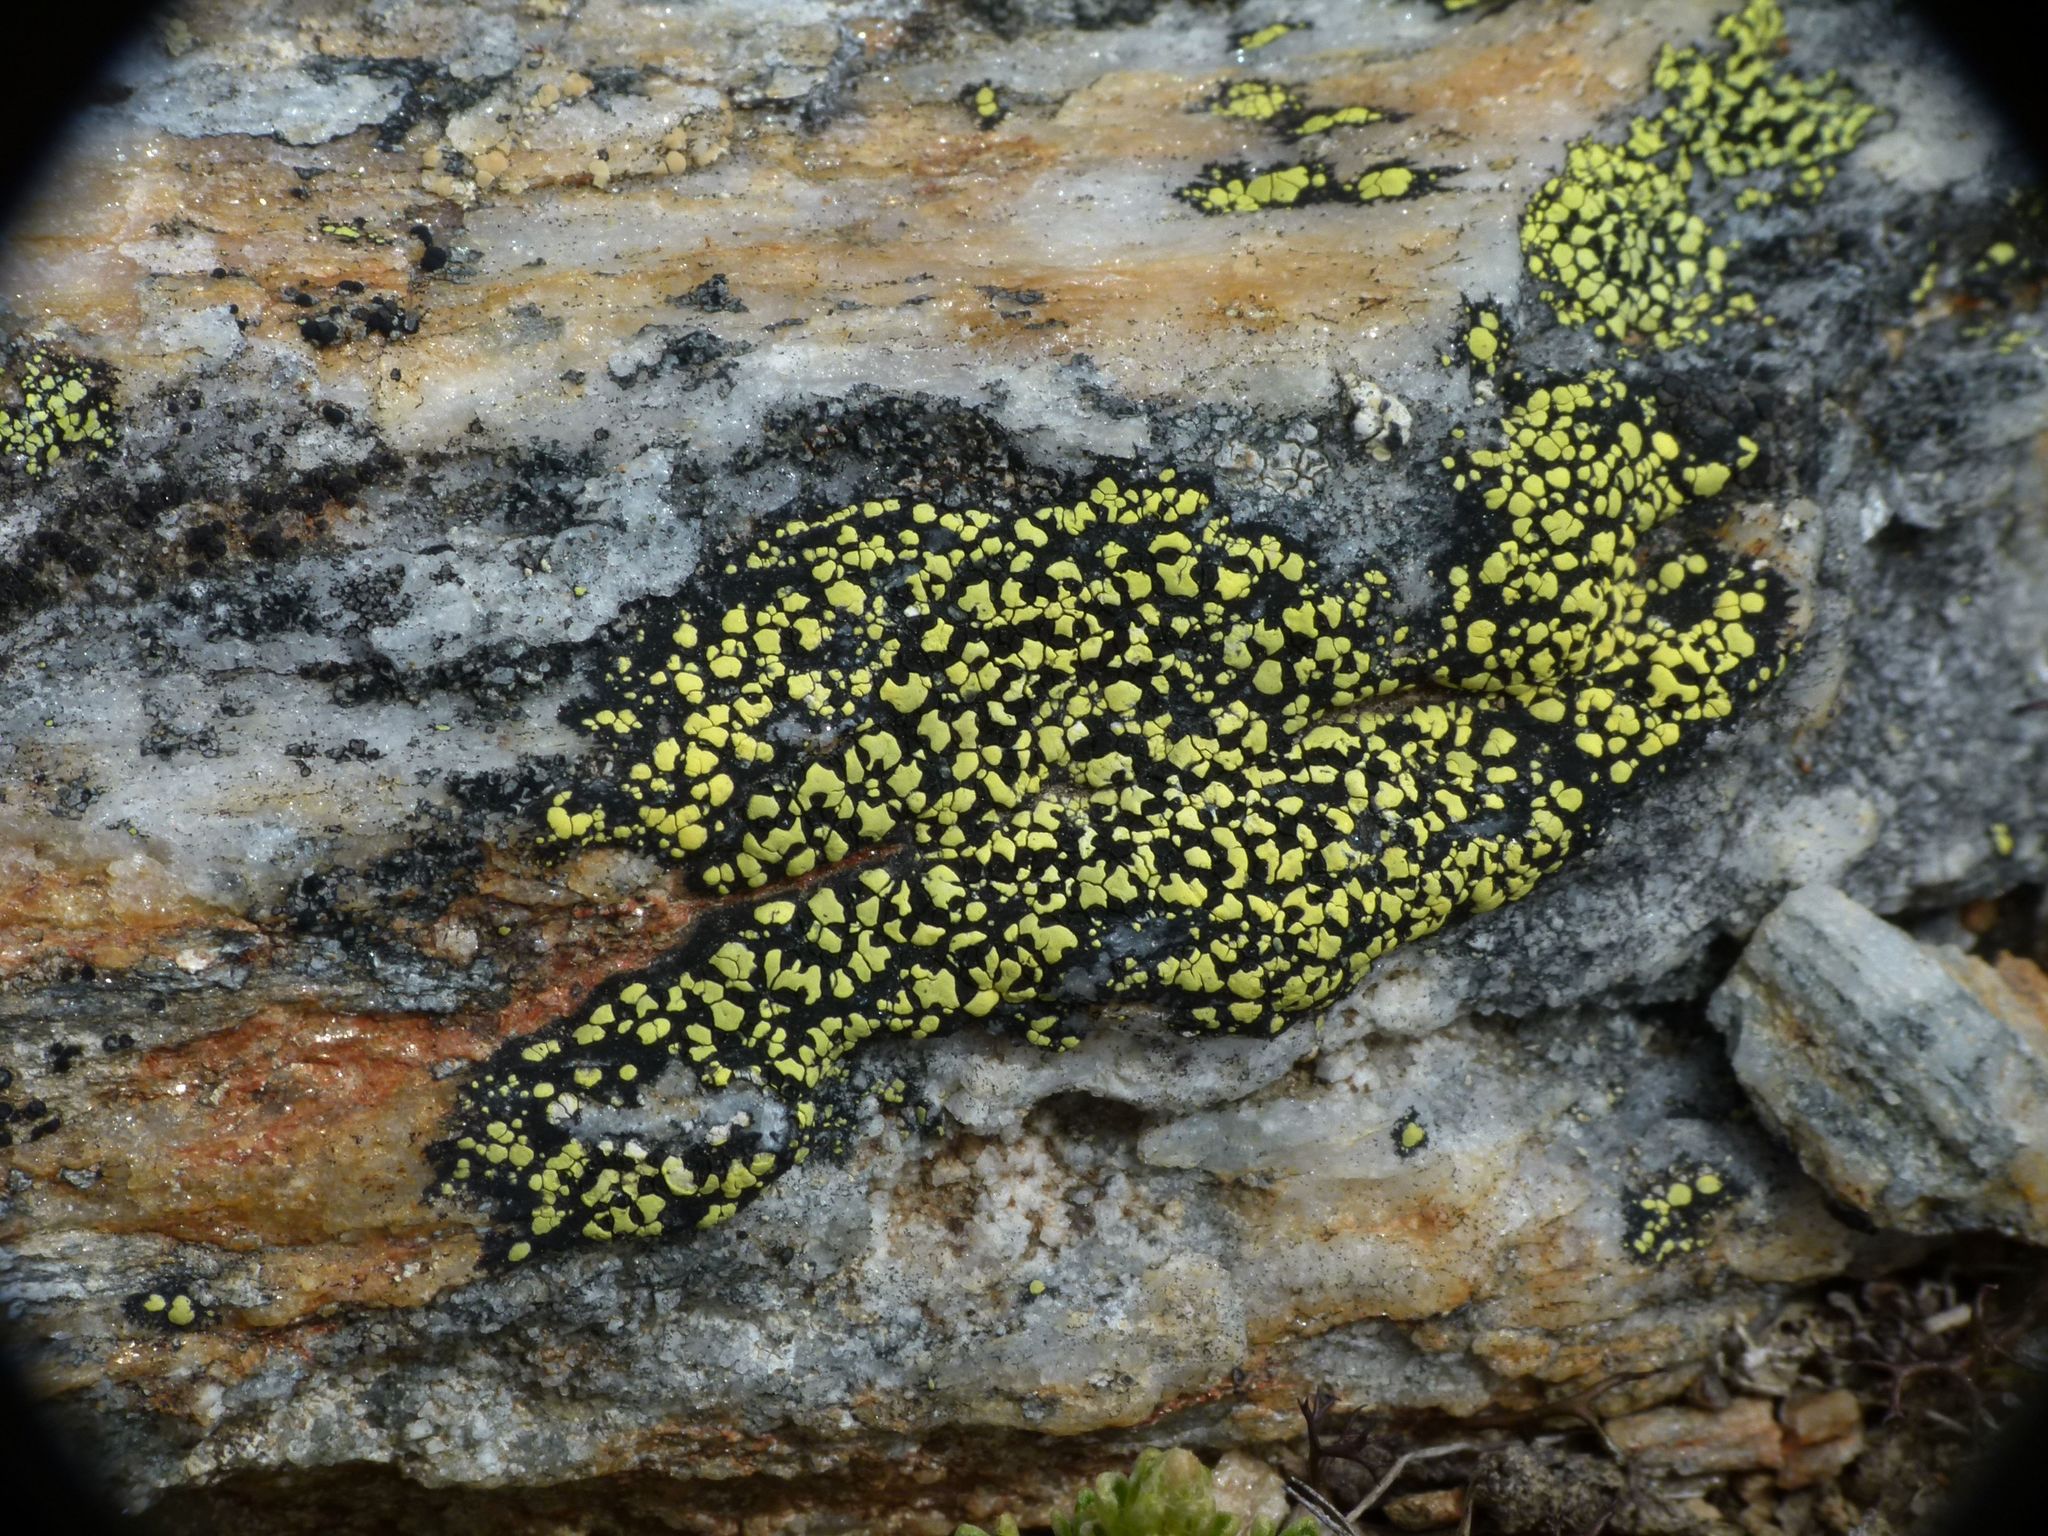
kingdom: Fungi
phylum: Ascomycota
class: Lecanoromycetes
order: Rhizocarpales
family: Rhizocarpaceae
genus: Rhizocarpon
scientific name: Rhizocarpon geographicum
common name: Yellow map lichen
